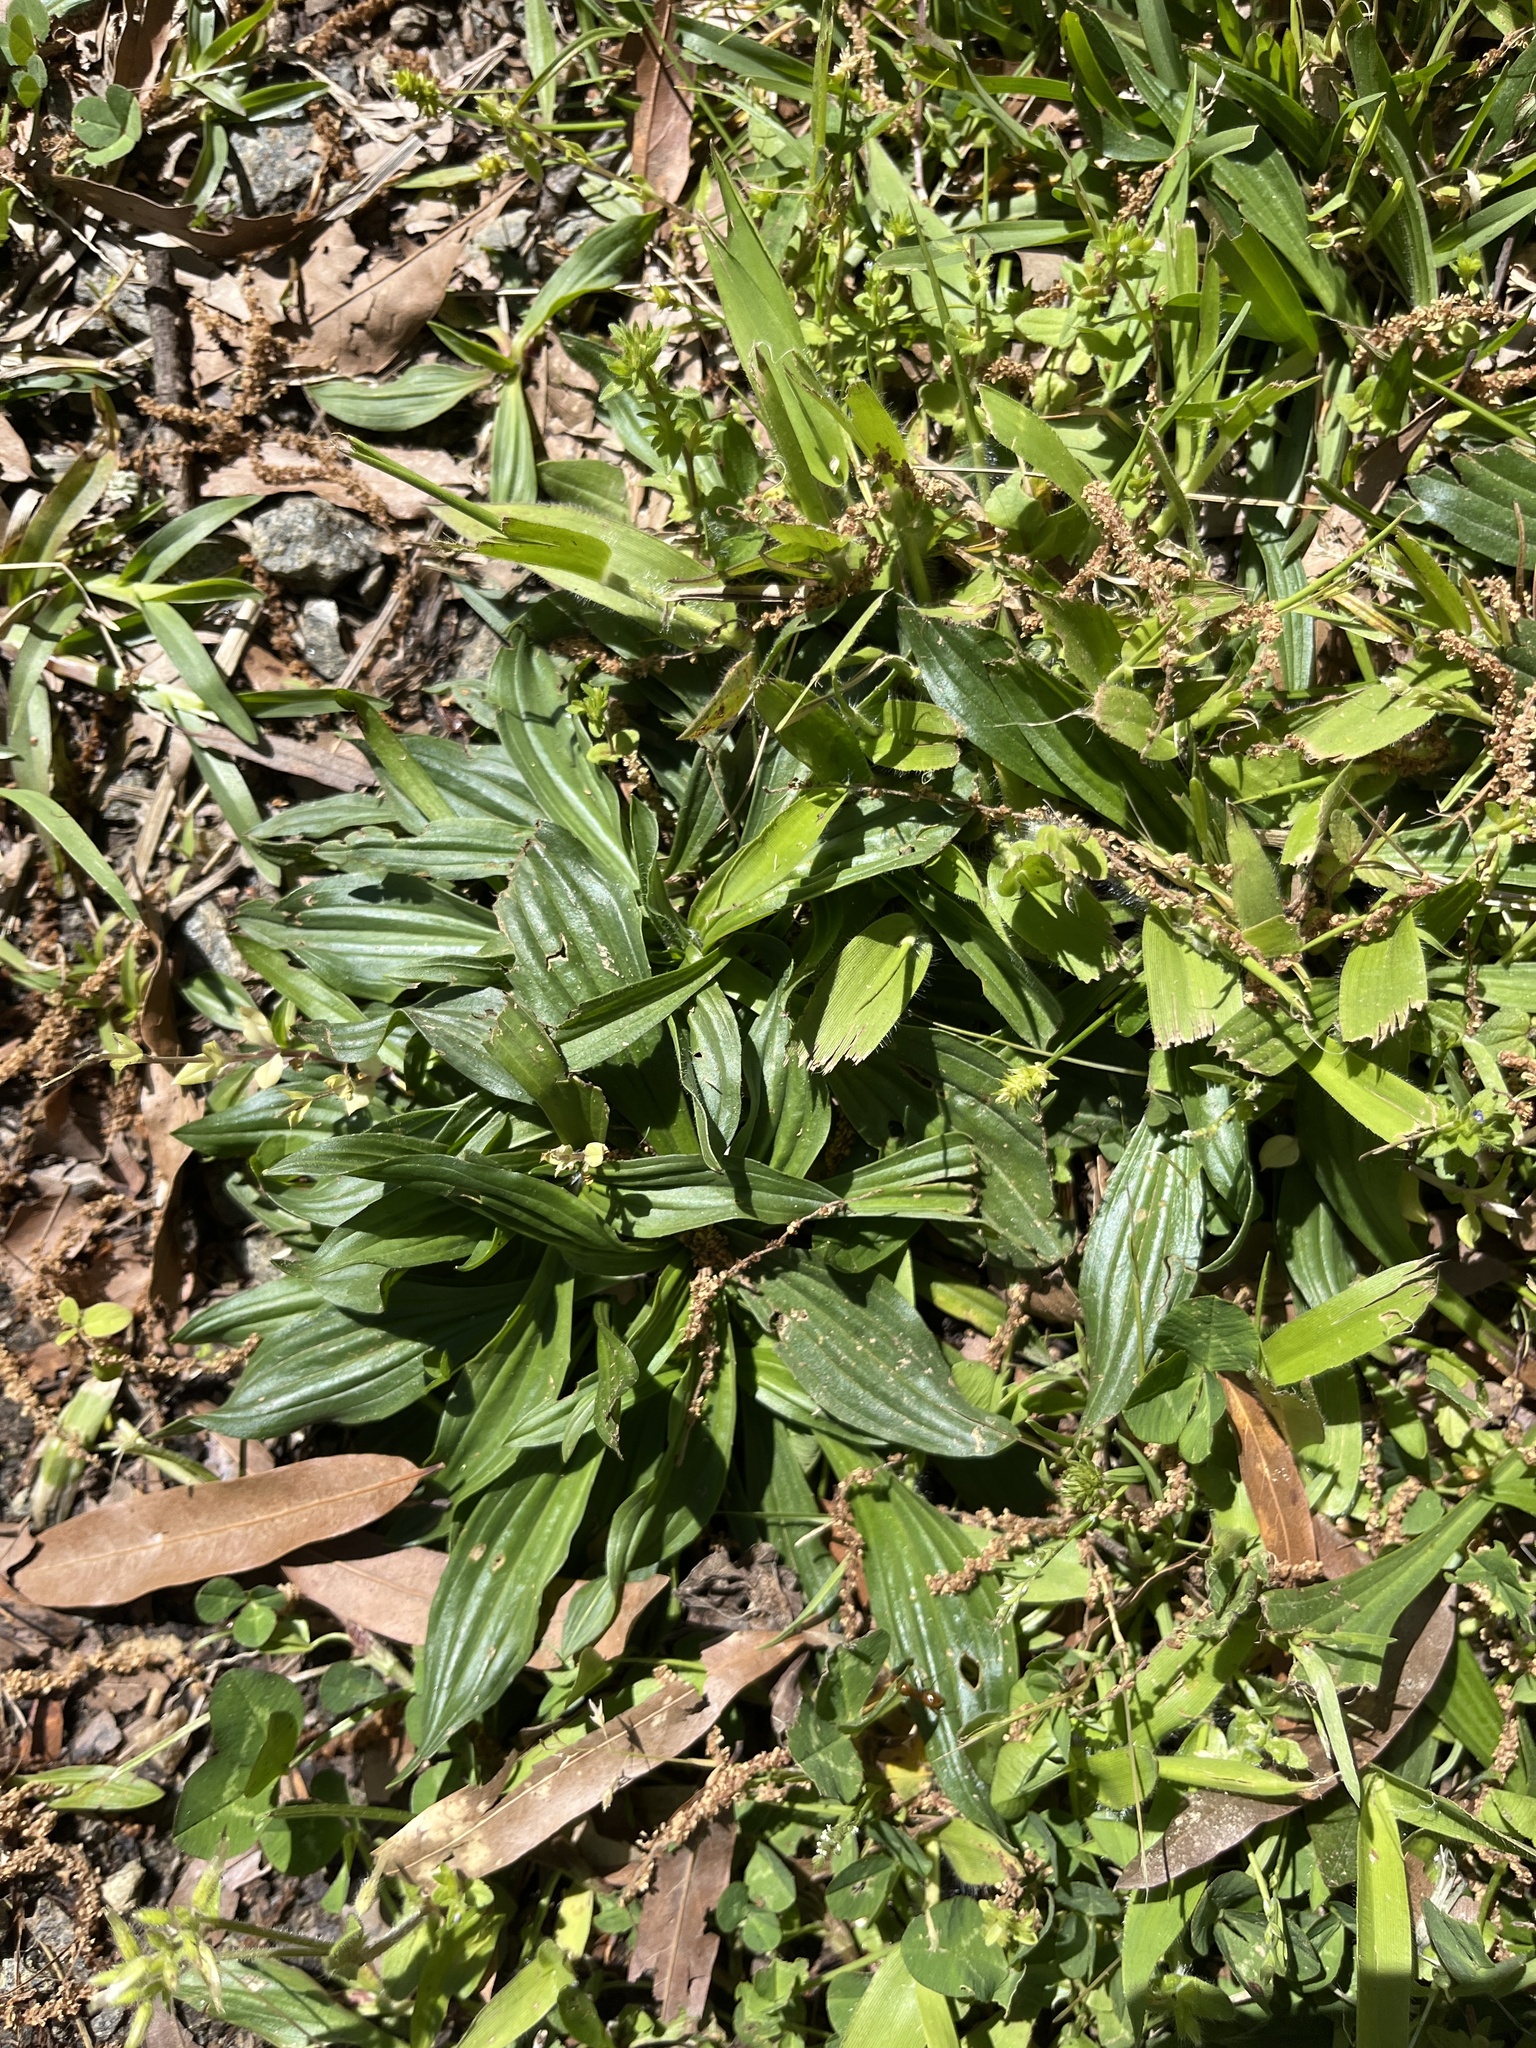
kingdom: Plantae
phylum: Tracheophyta
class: Magnoliopsida
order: Lamiales
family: Plantaginaceae
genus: Plantago
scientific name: Plantago lanceolata
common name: Ribwort plantain
